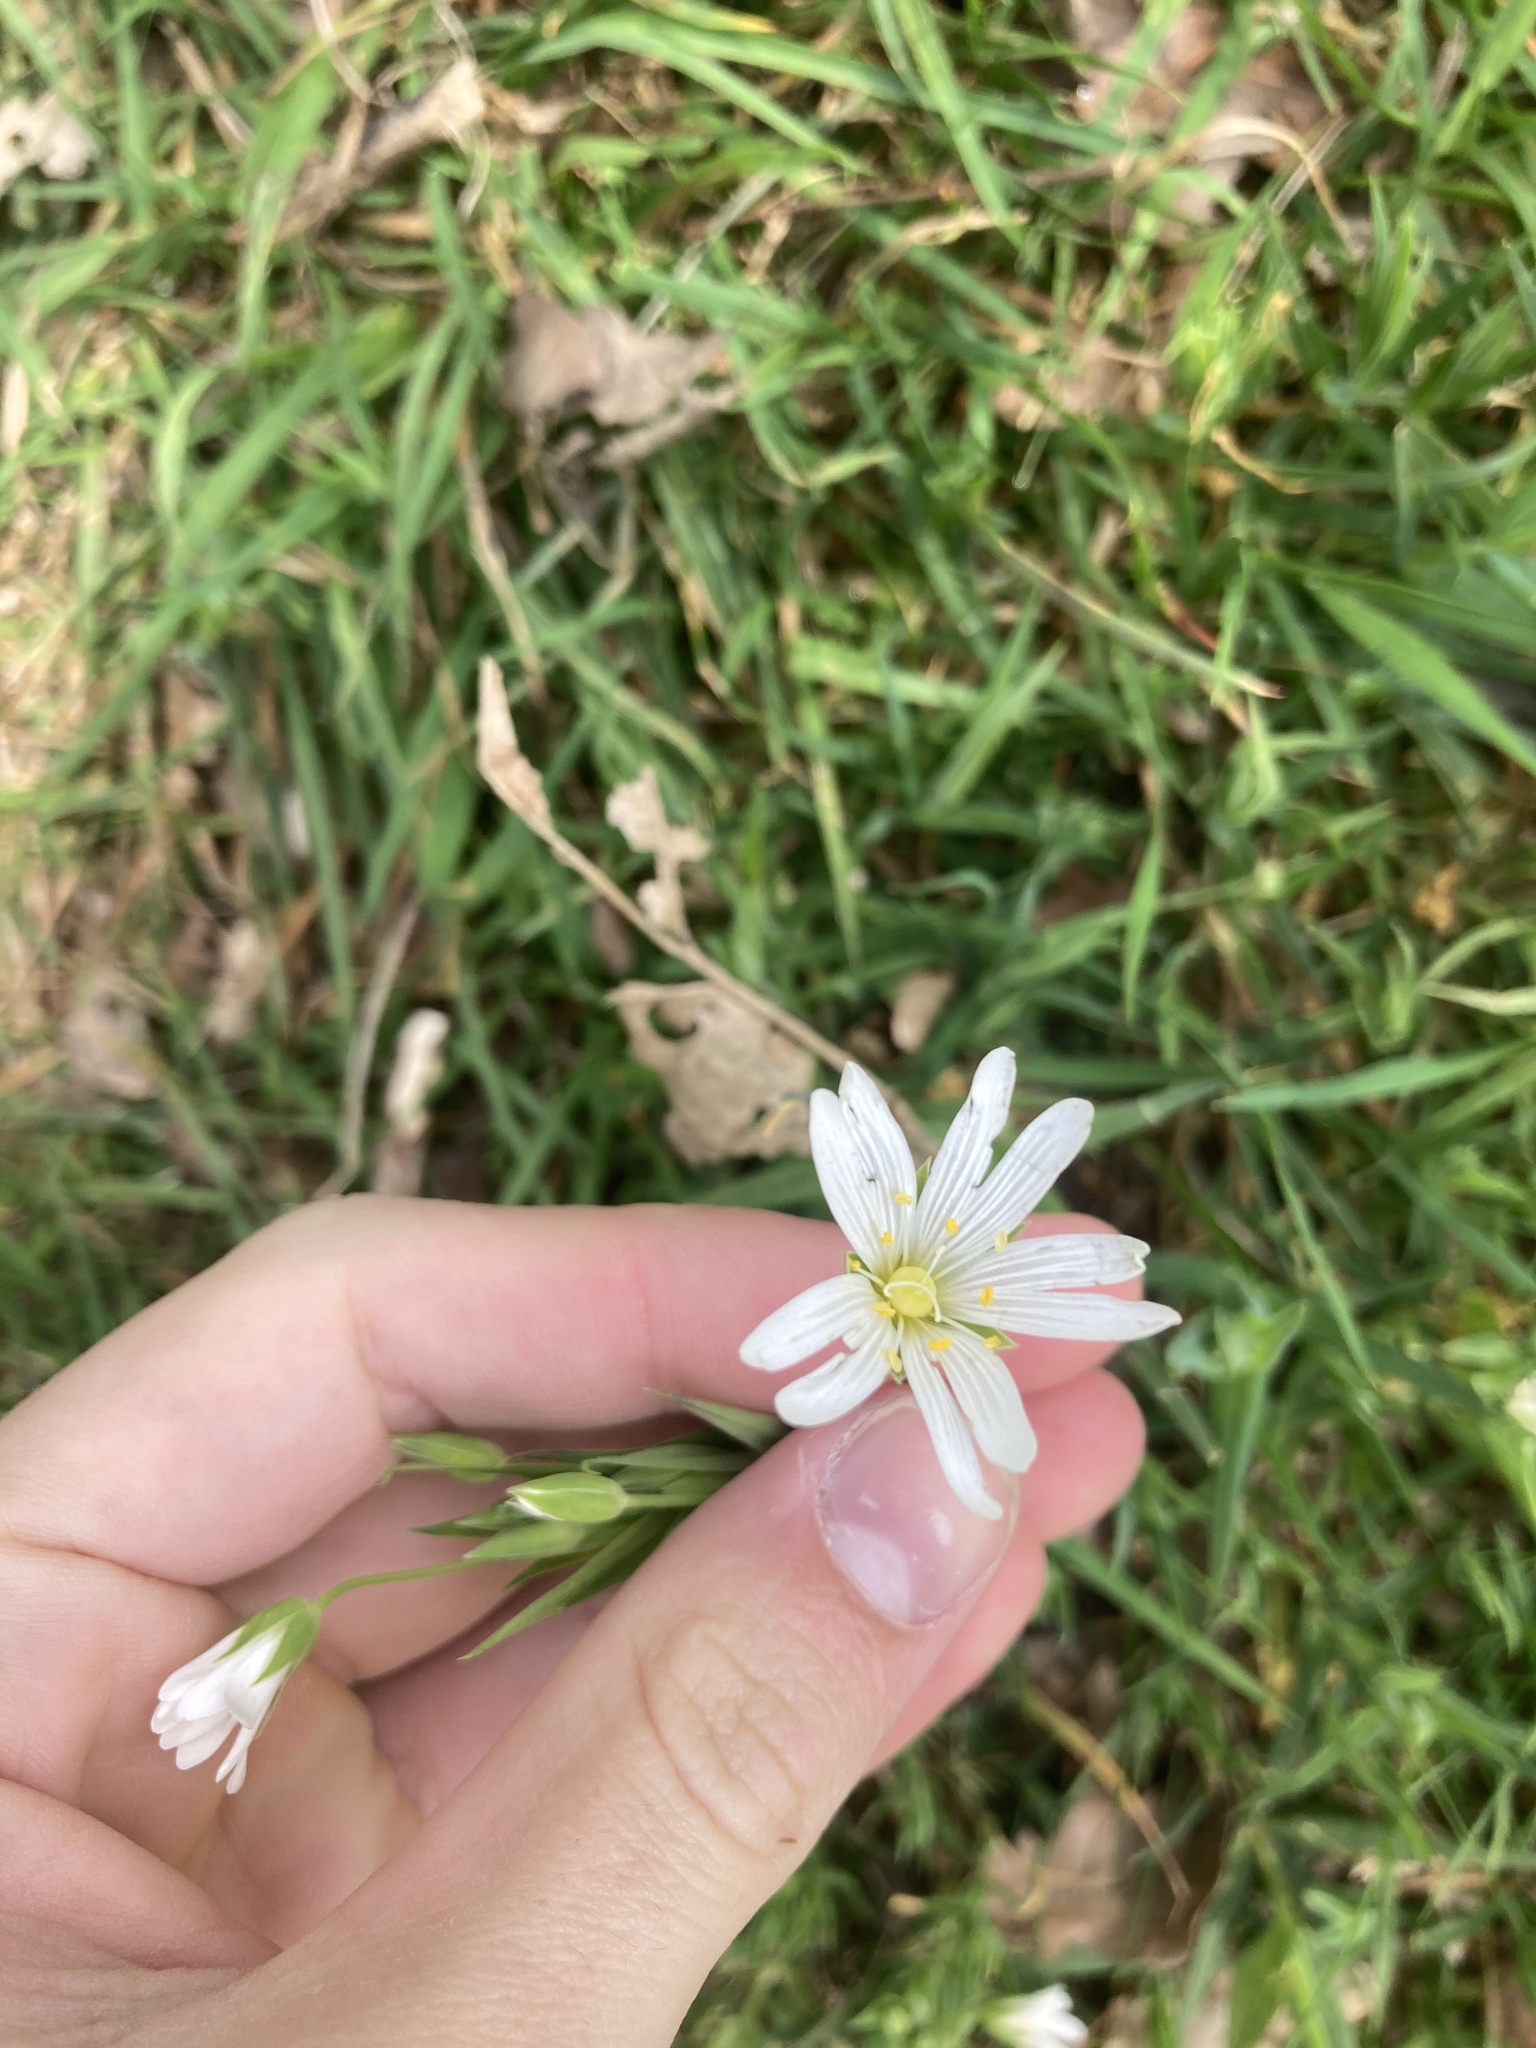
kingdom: Plantae
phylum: Tracheophyta
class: Magnoliopsida
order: Caryophyllales
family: Caryophyllaceae
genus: Rabelera
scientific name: Rabelera holostea
